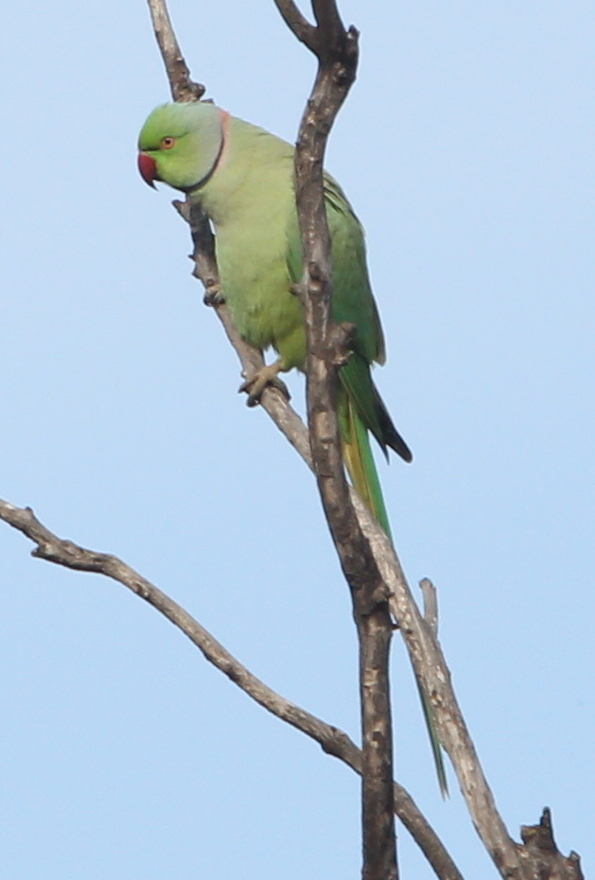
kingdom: Animalia
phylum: Chordata
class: Aves
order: Psittaciformes
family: Psittacidae
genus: Psittacula
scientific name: Psittacula krameri
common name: Rose-ringed parakeet
